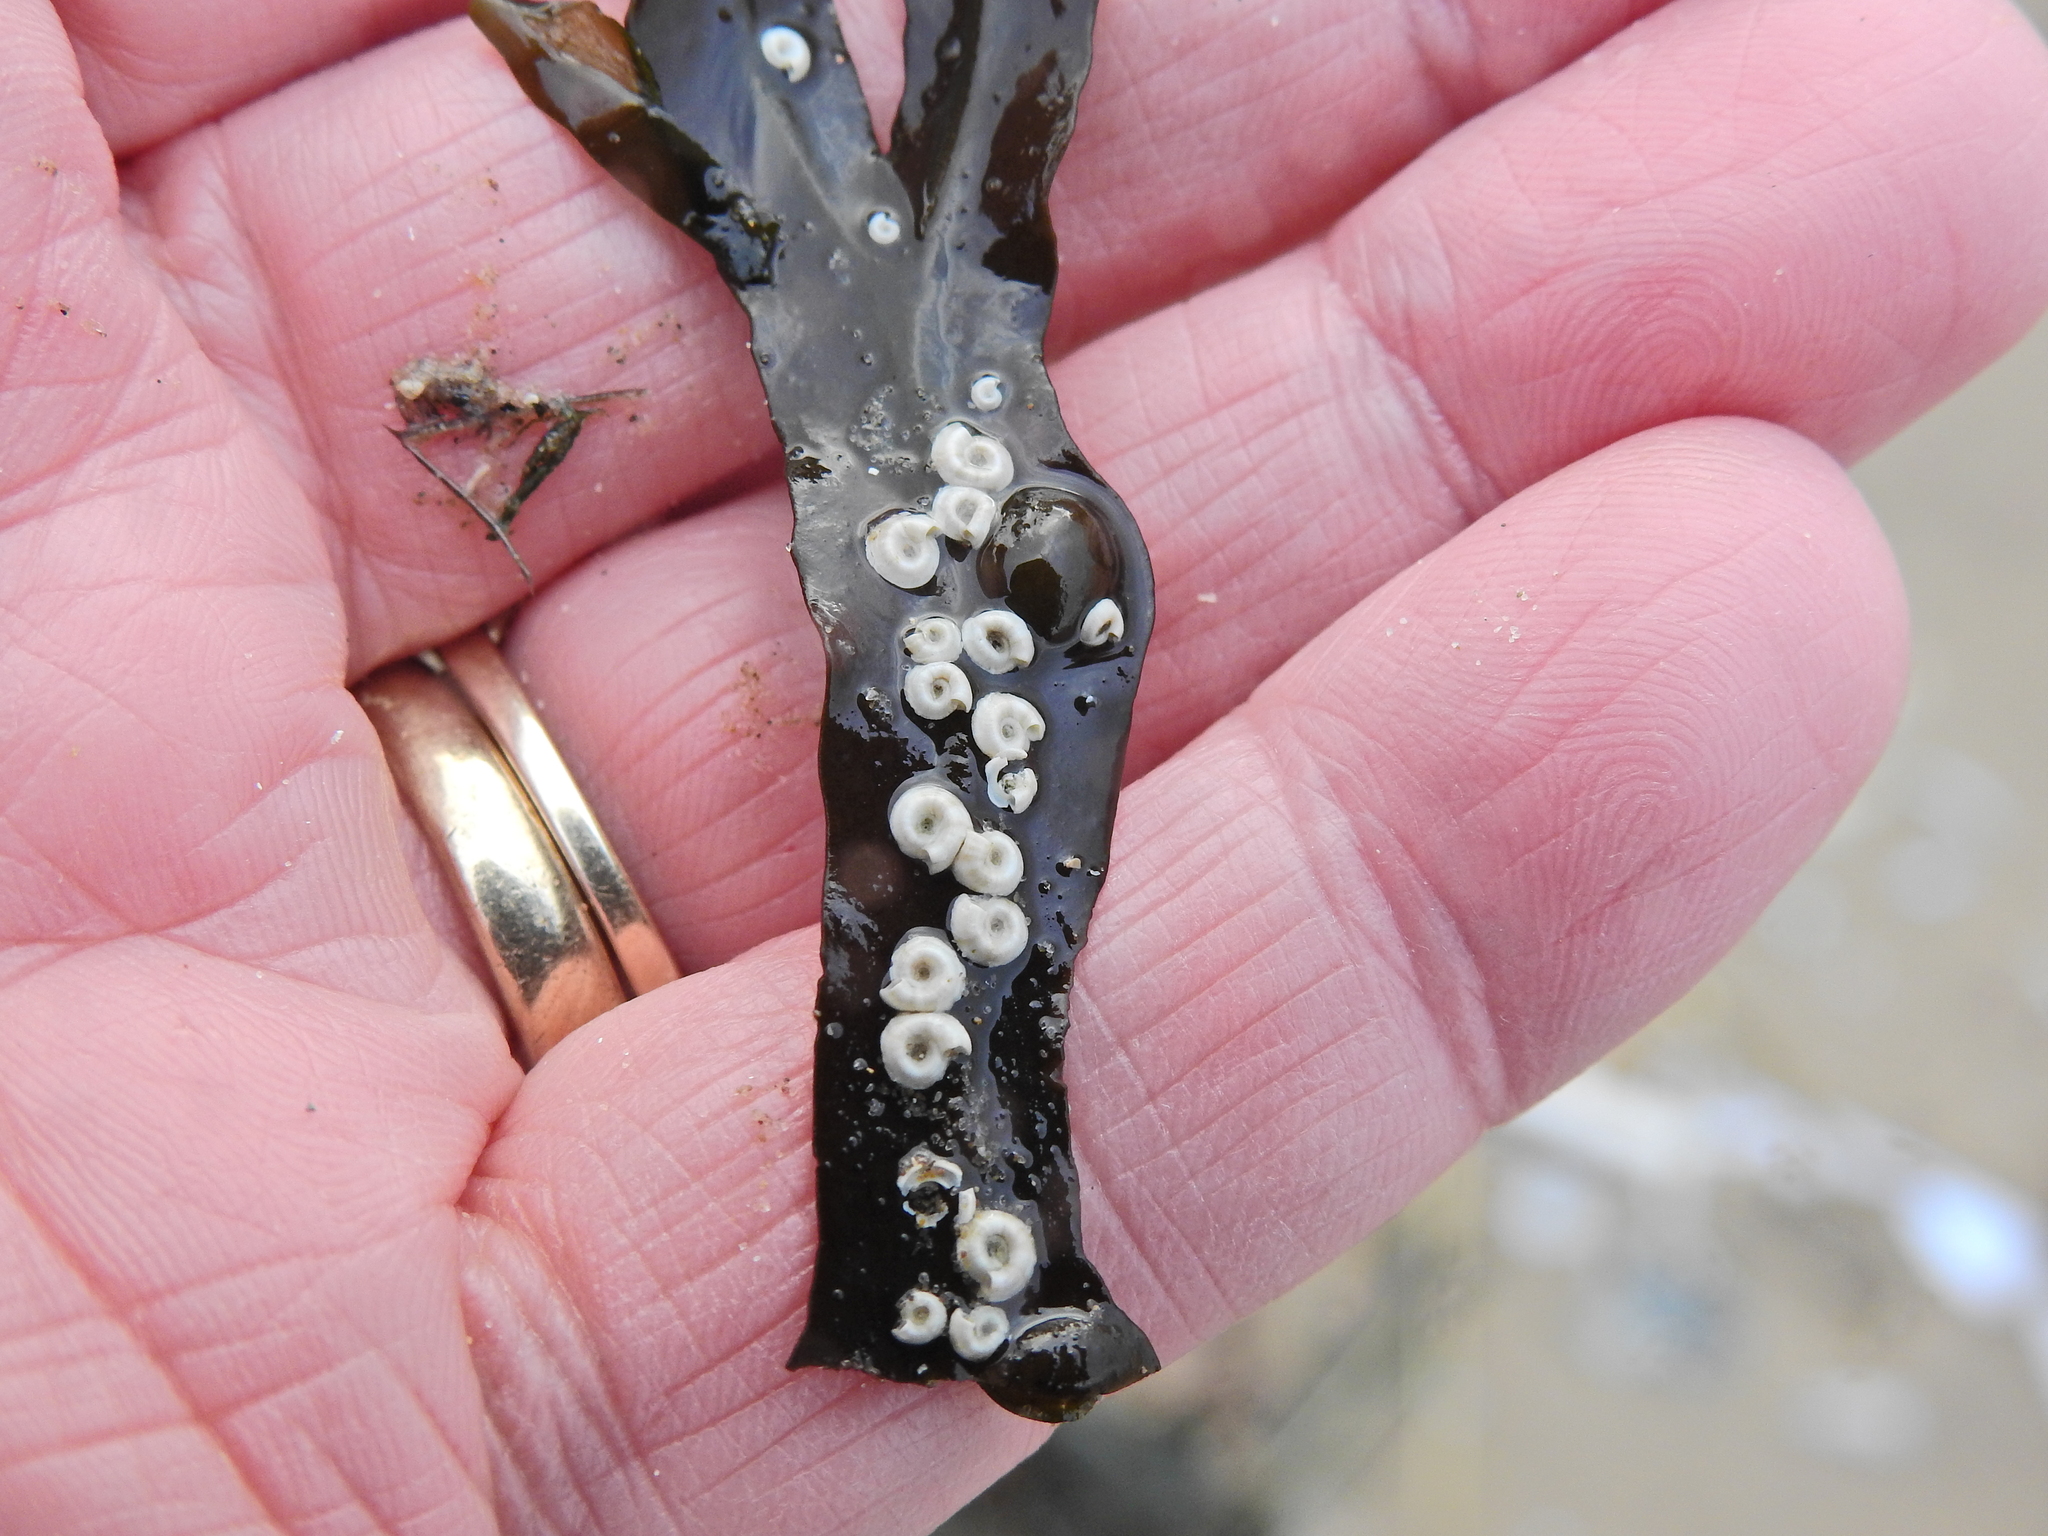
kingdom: Animalia
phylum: Annelida
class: Polychaeta
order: Sabellida
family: Serpulidae
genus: Spirorbis
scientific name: Spirorbis spirorbis
